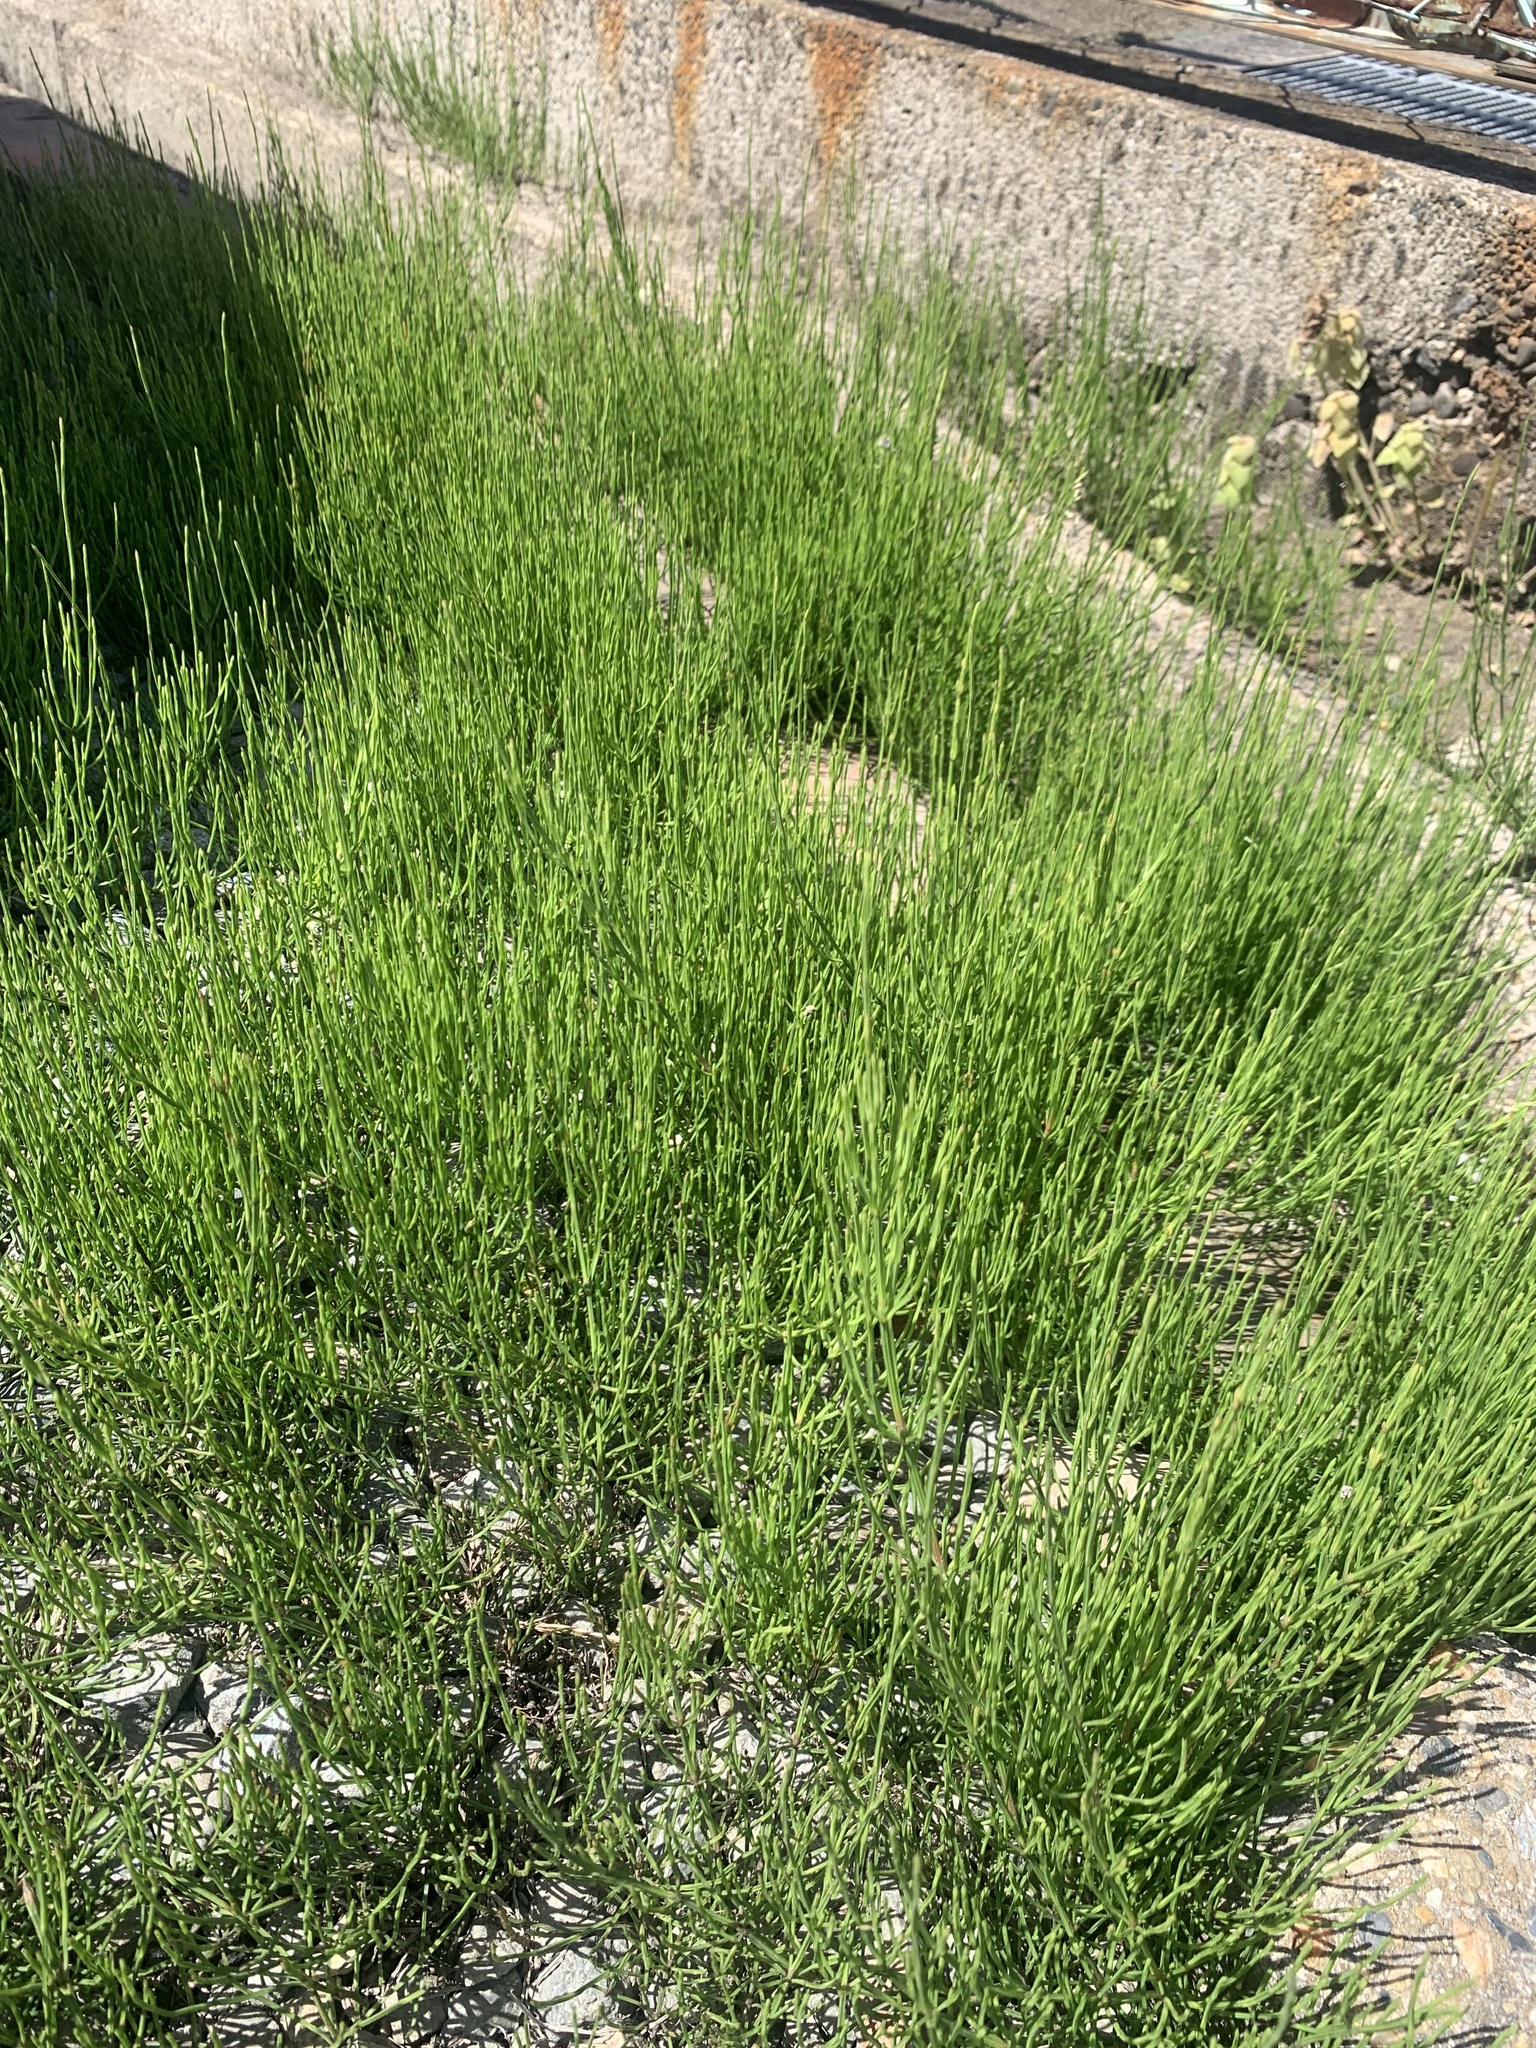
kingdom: Plantae
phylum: Tracheophyta
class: Polypodiopsida
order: Equisetales
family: Equisetaceae
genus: Equisetum
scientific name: Equisetum arvense
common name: Field horsetail
